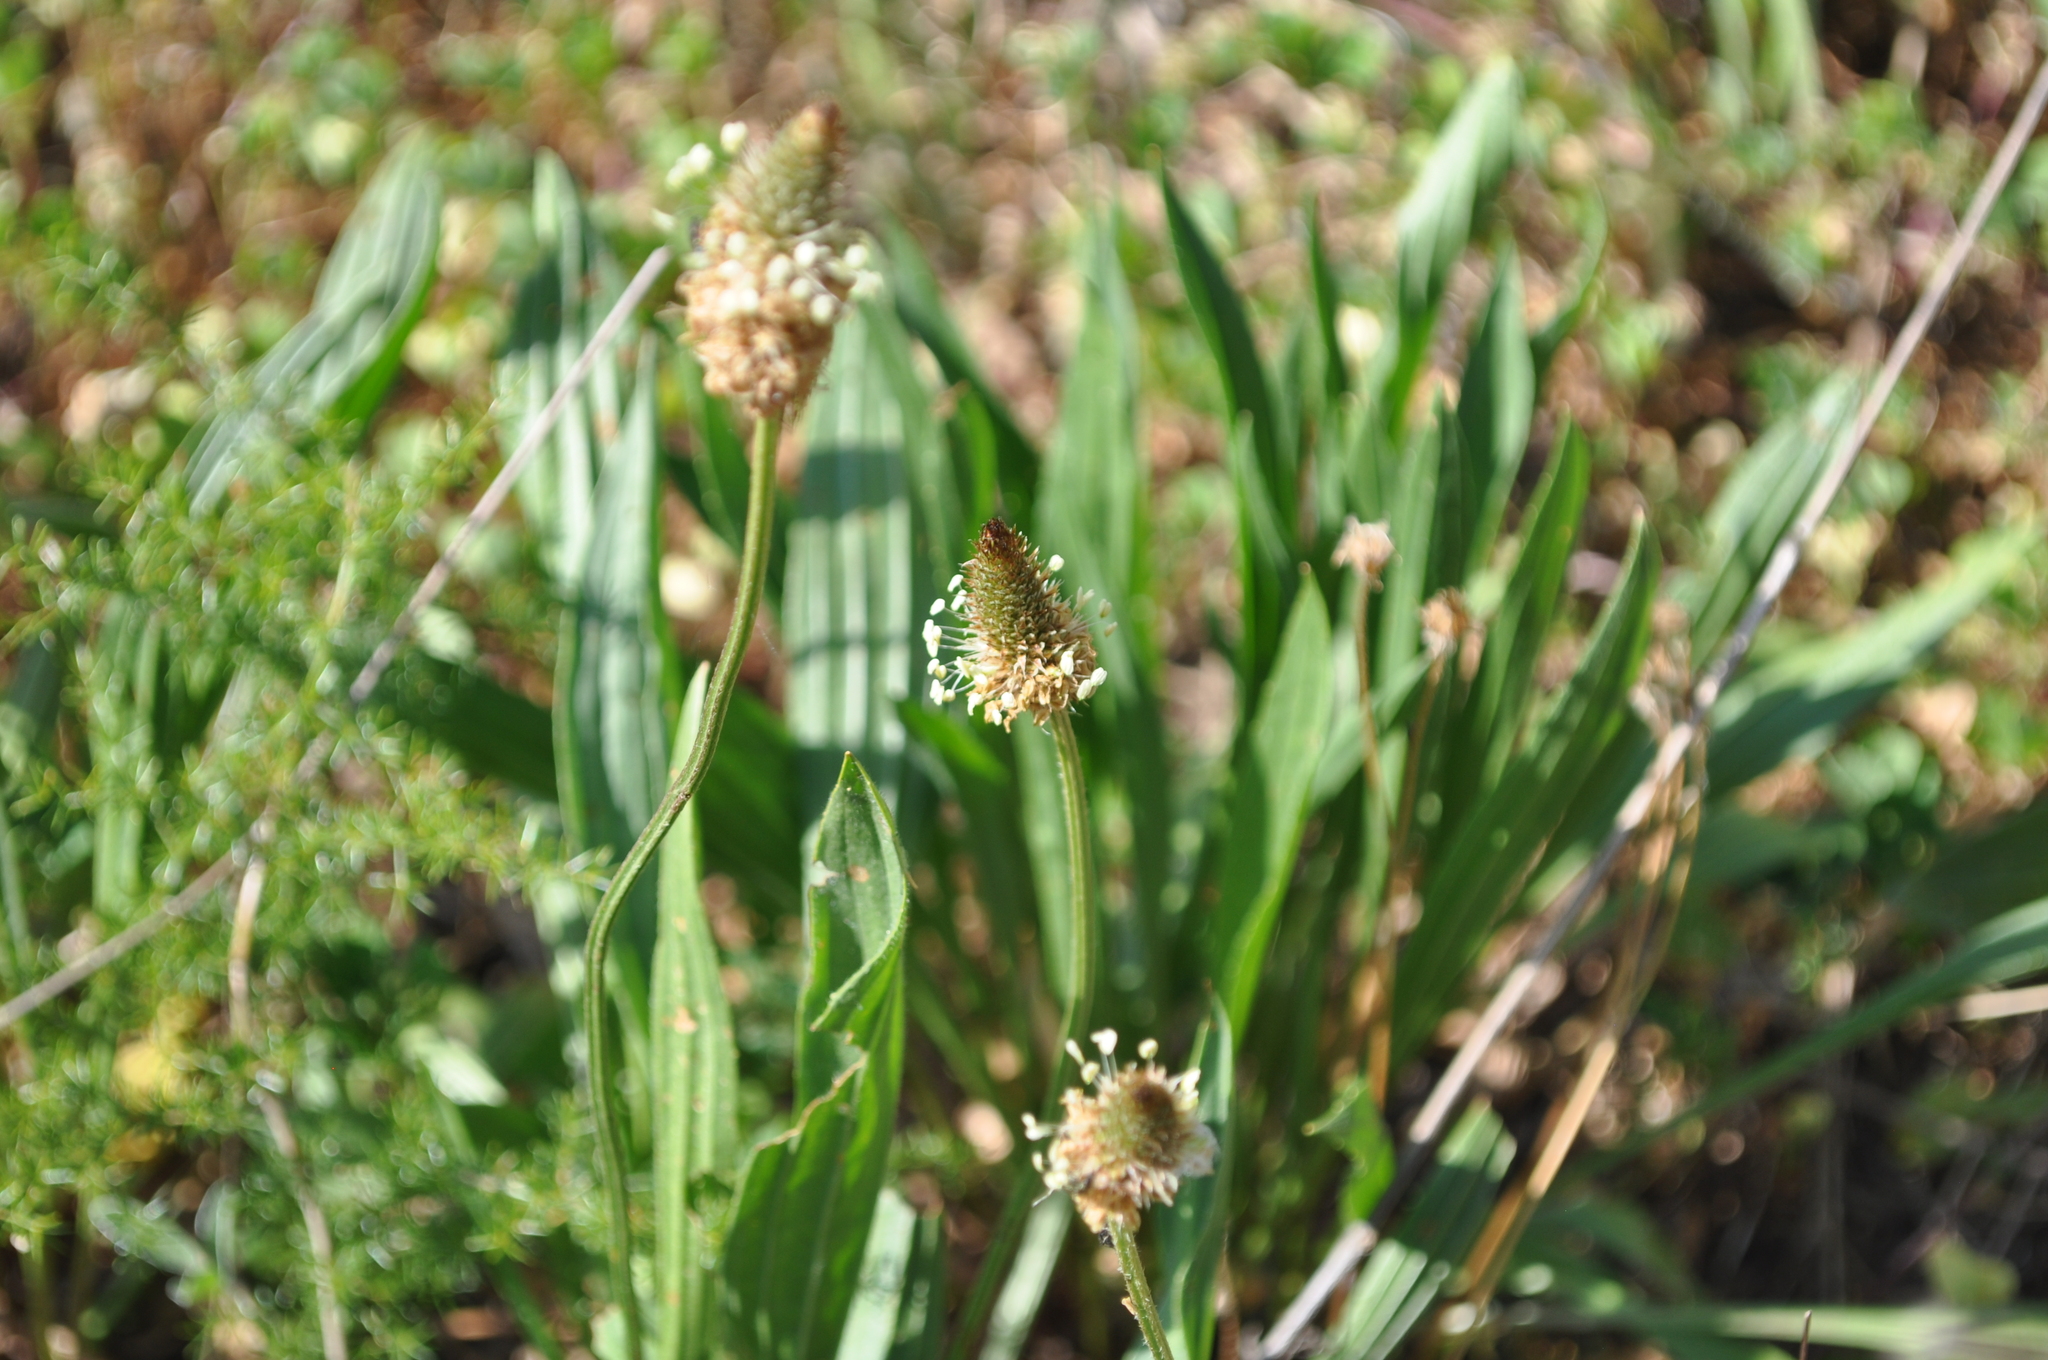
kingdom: Plantae
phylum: Tracheophyta
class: Magnoliopsida
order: Lamiales
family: Plantaginaceae
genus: Plantago
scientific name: Plantago lanceolata
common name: Ribwort plantain
